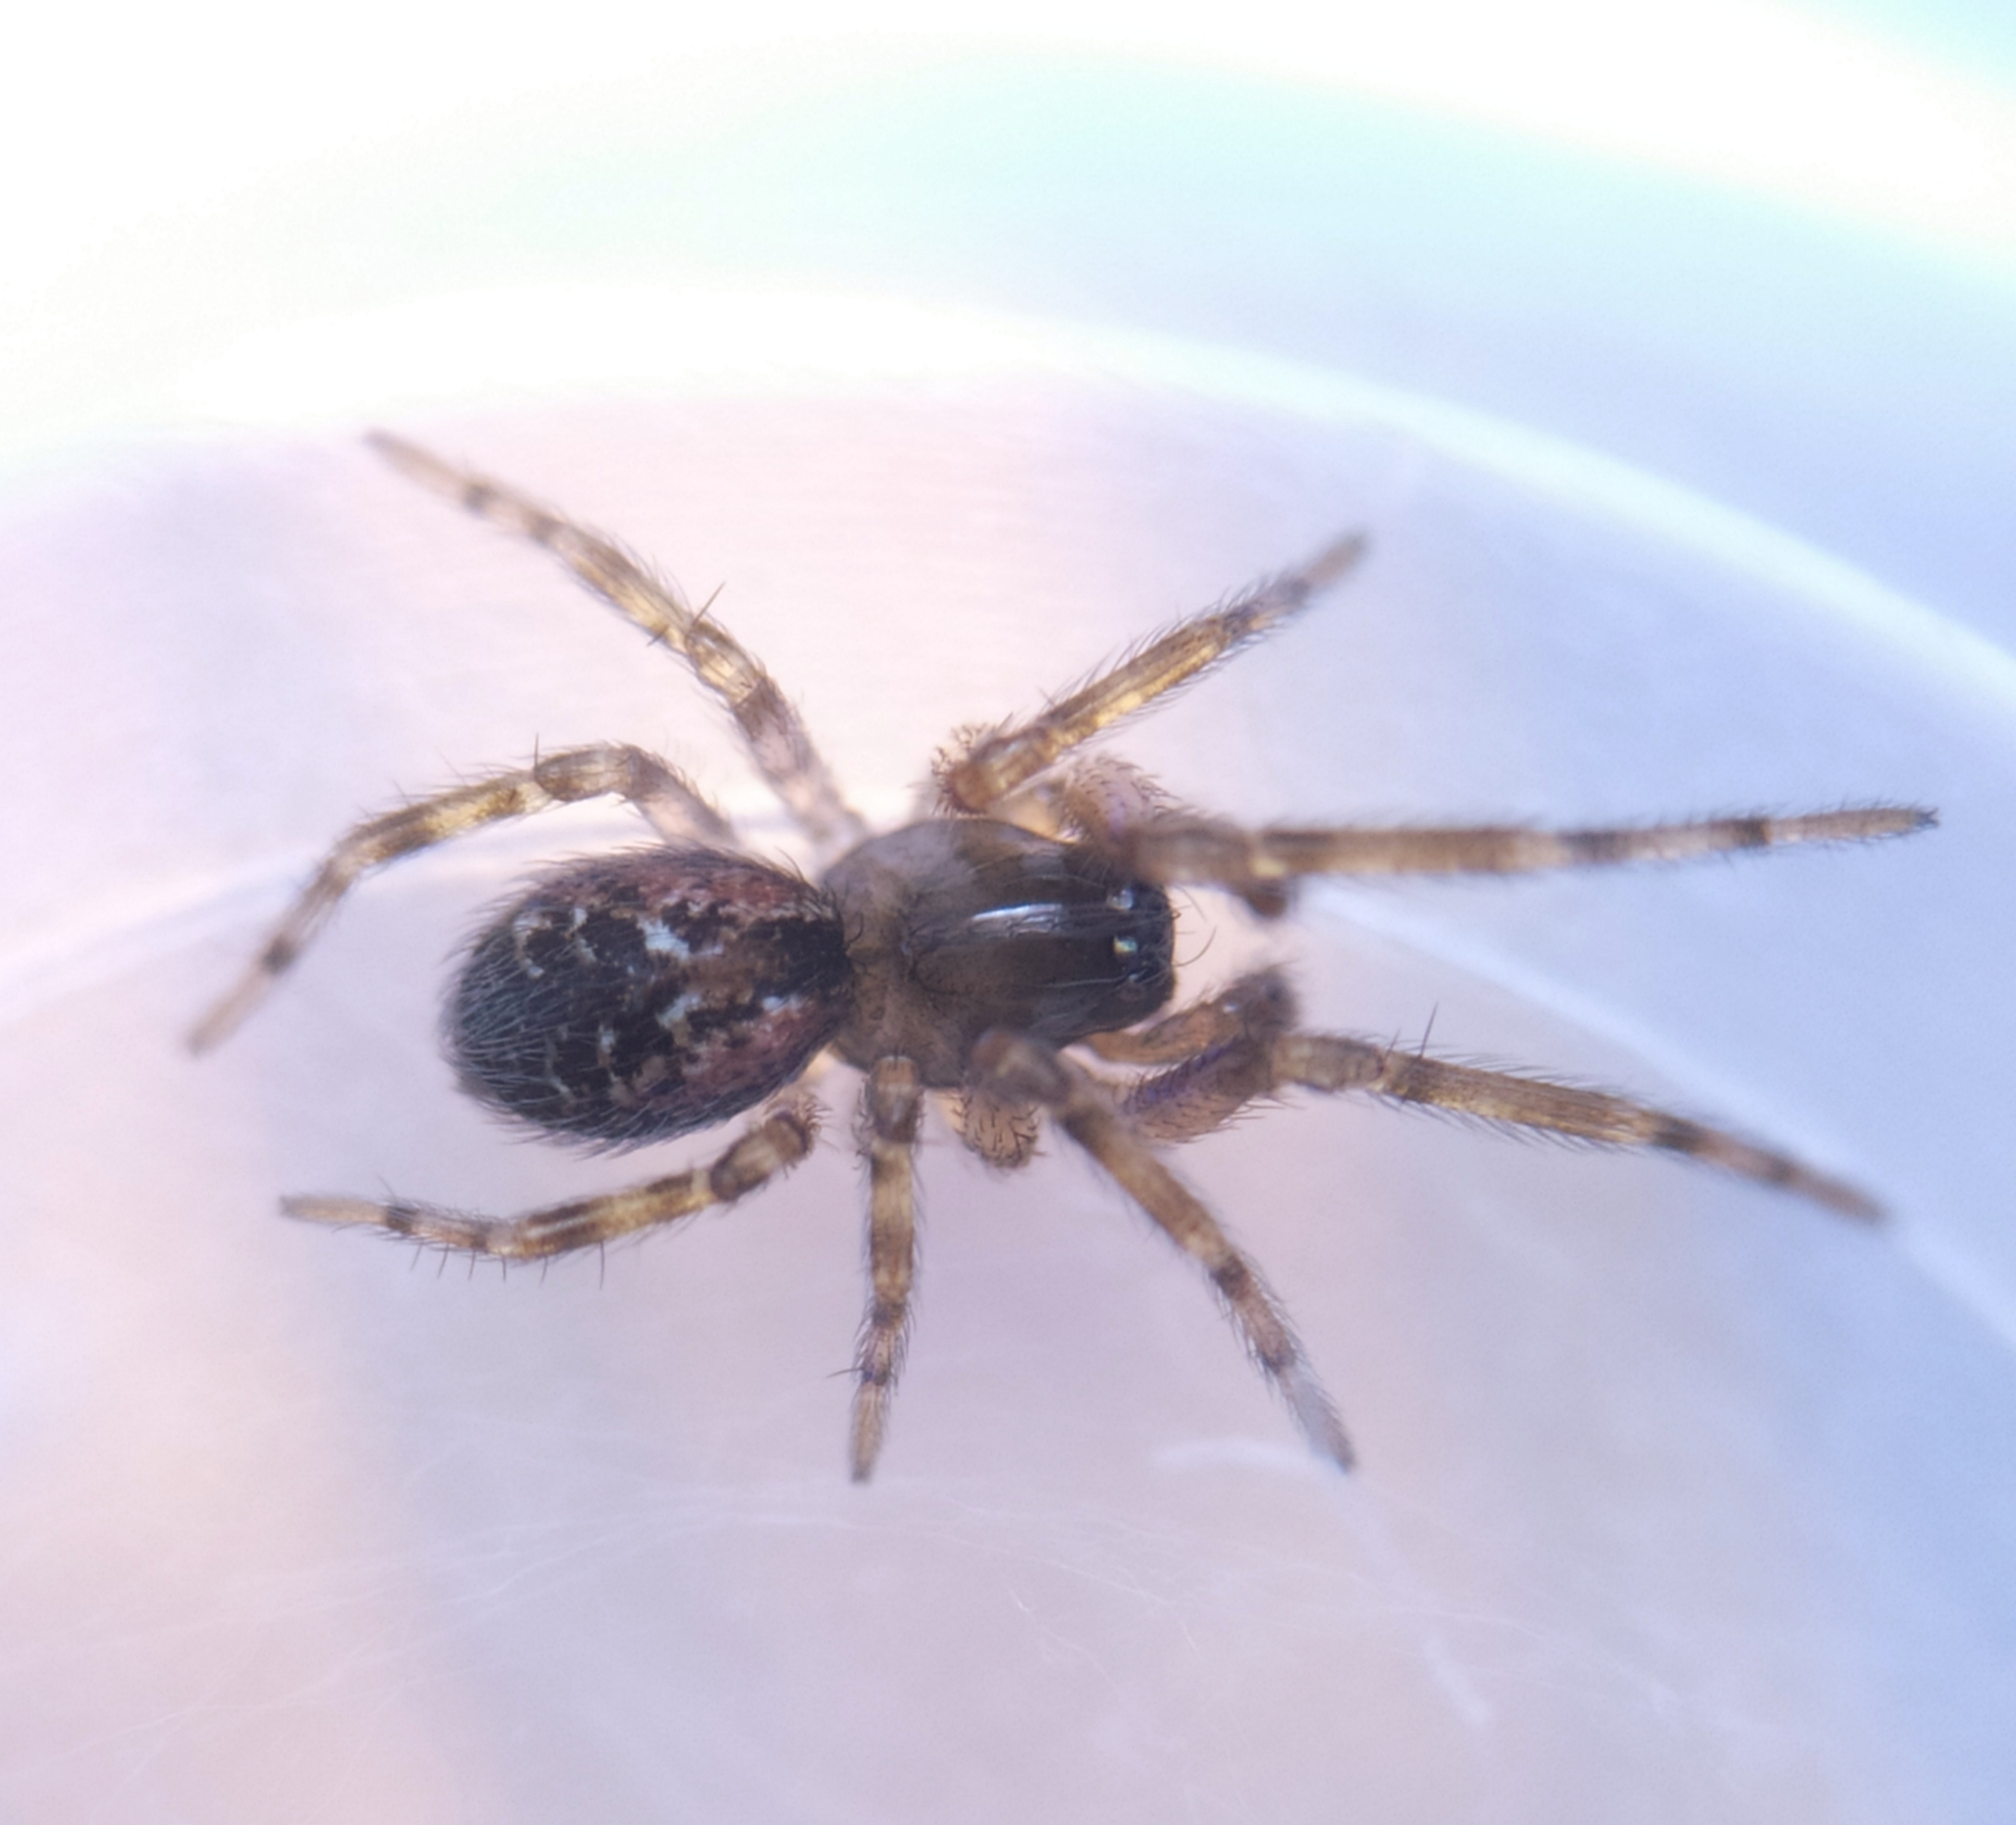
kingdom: Animalia
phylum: Arthropoda
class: Arachnida
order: Araneae
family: Dictynidae
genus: Lathys
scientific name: Lathys humilis
